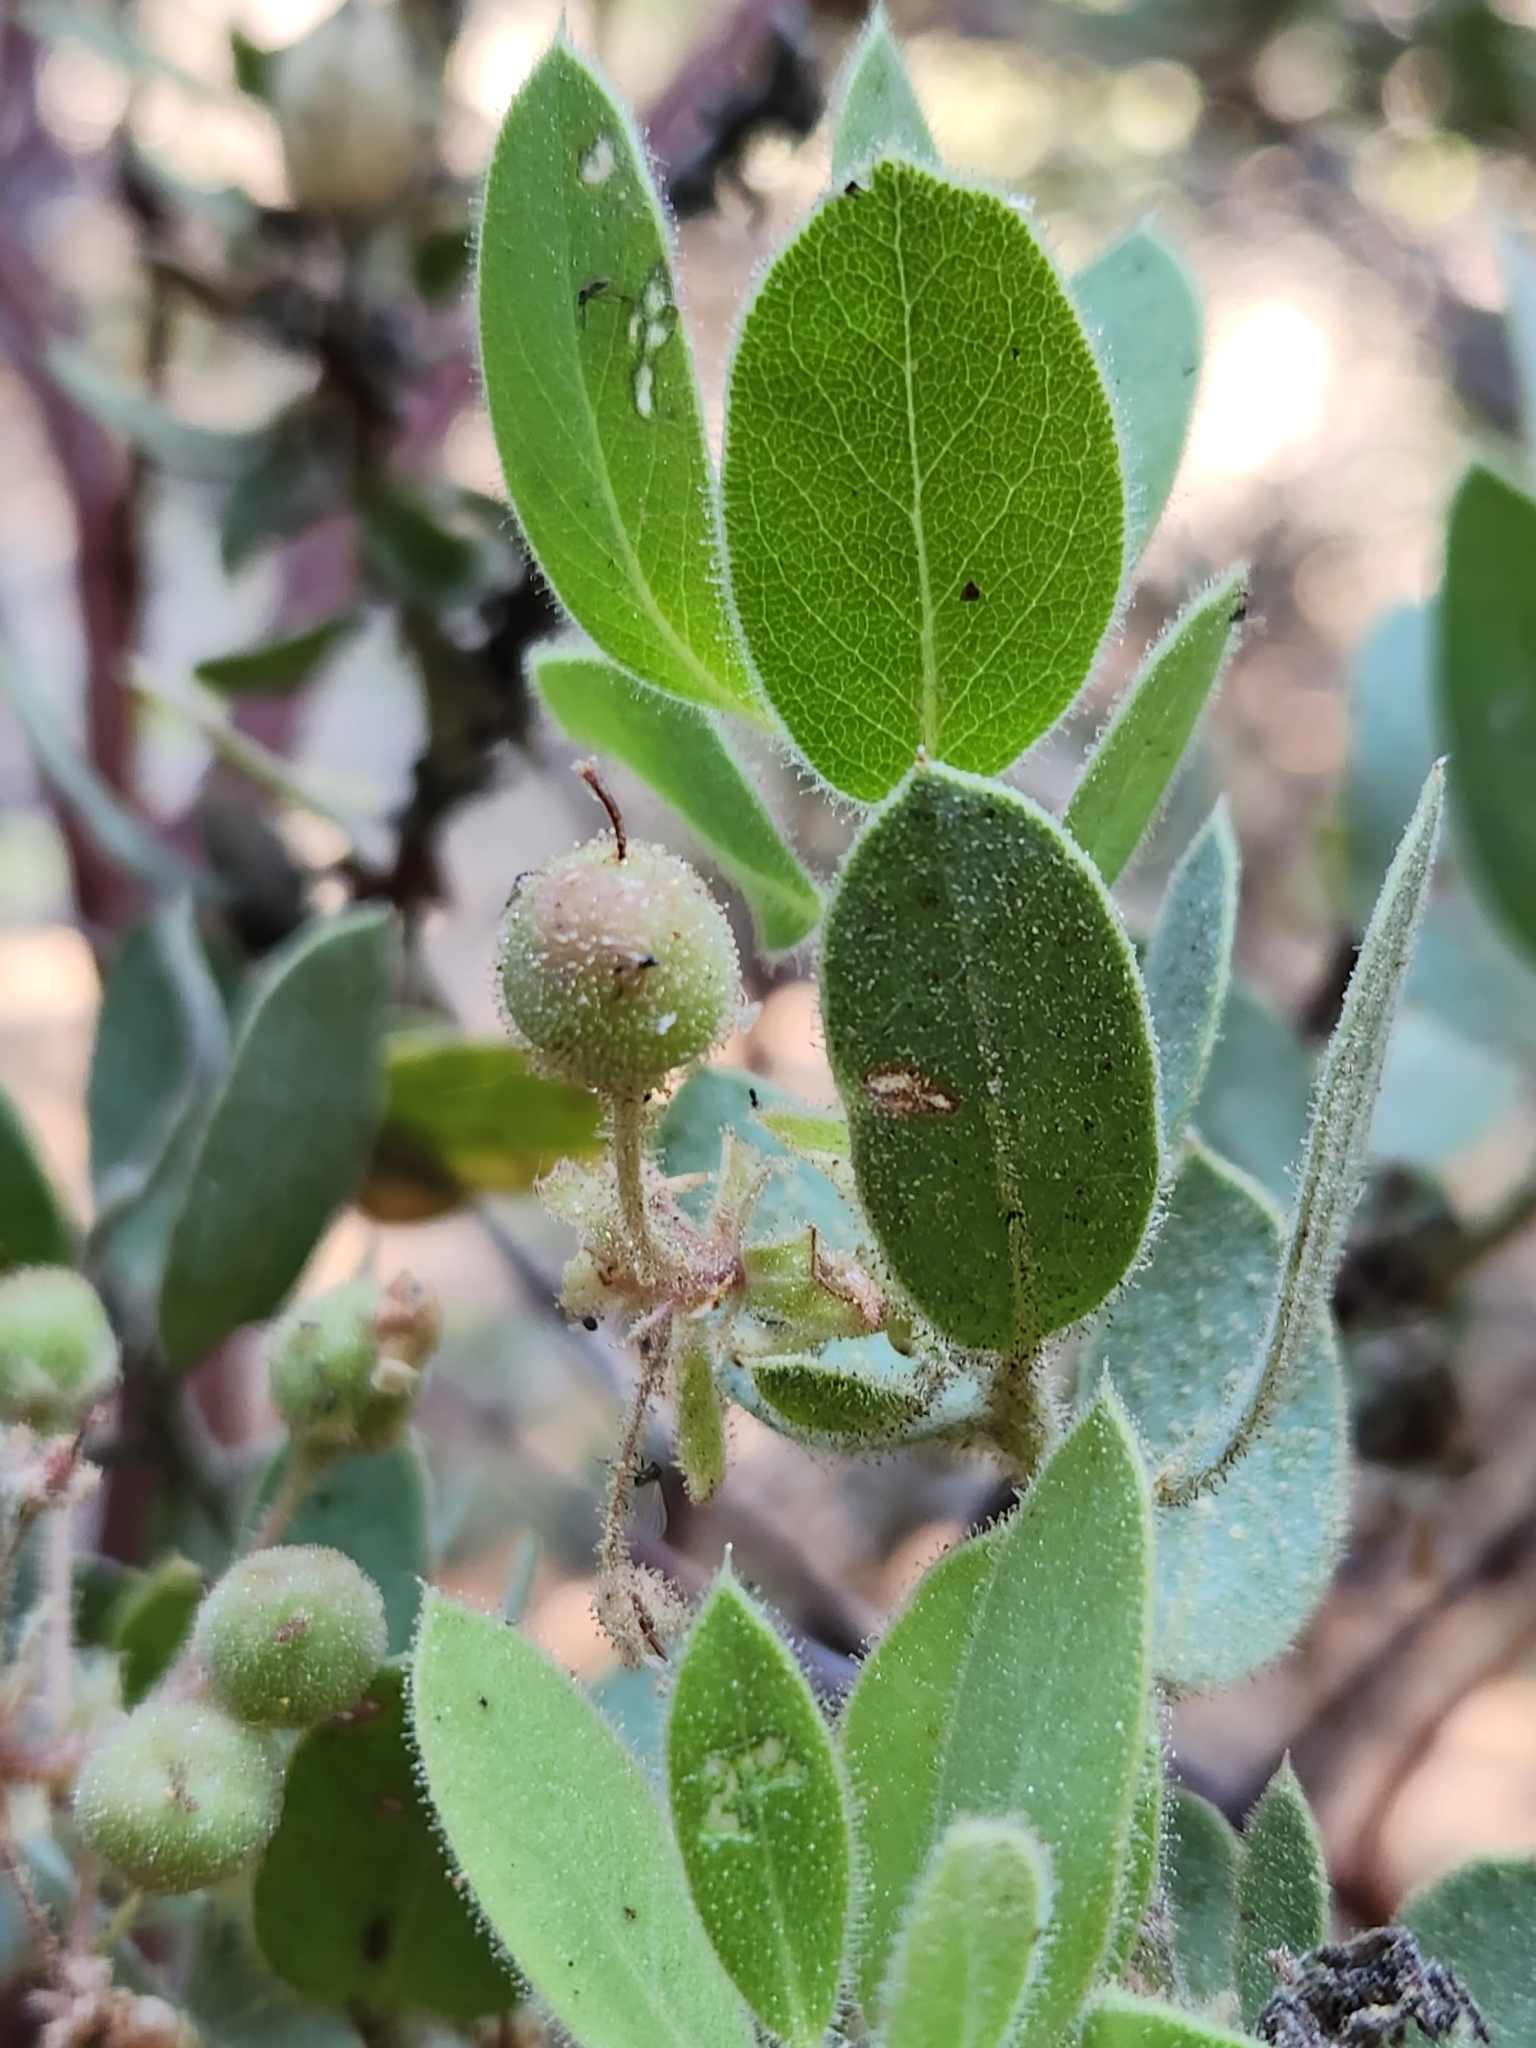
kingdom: Plantae
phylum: Tracheophyta
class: Magnoliopsida
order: Ericales
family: Ericaceae
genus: Arctostaphylos
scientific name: Arctostaphylos pringlei
